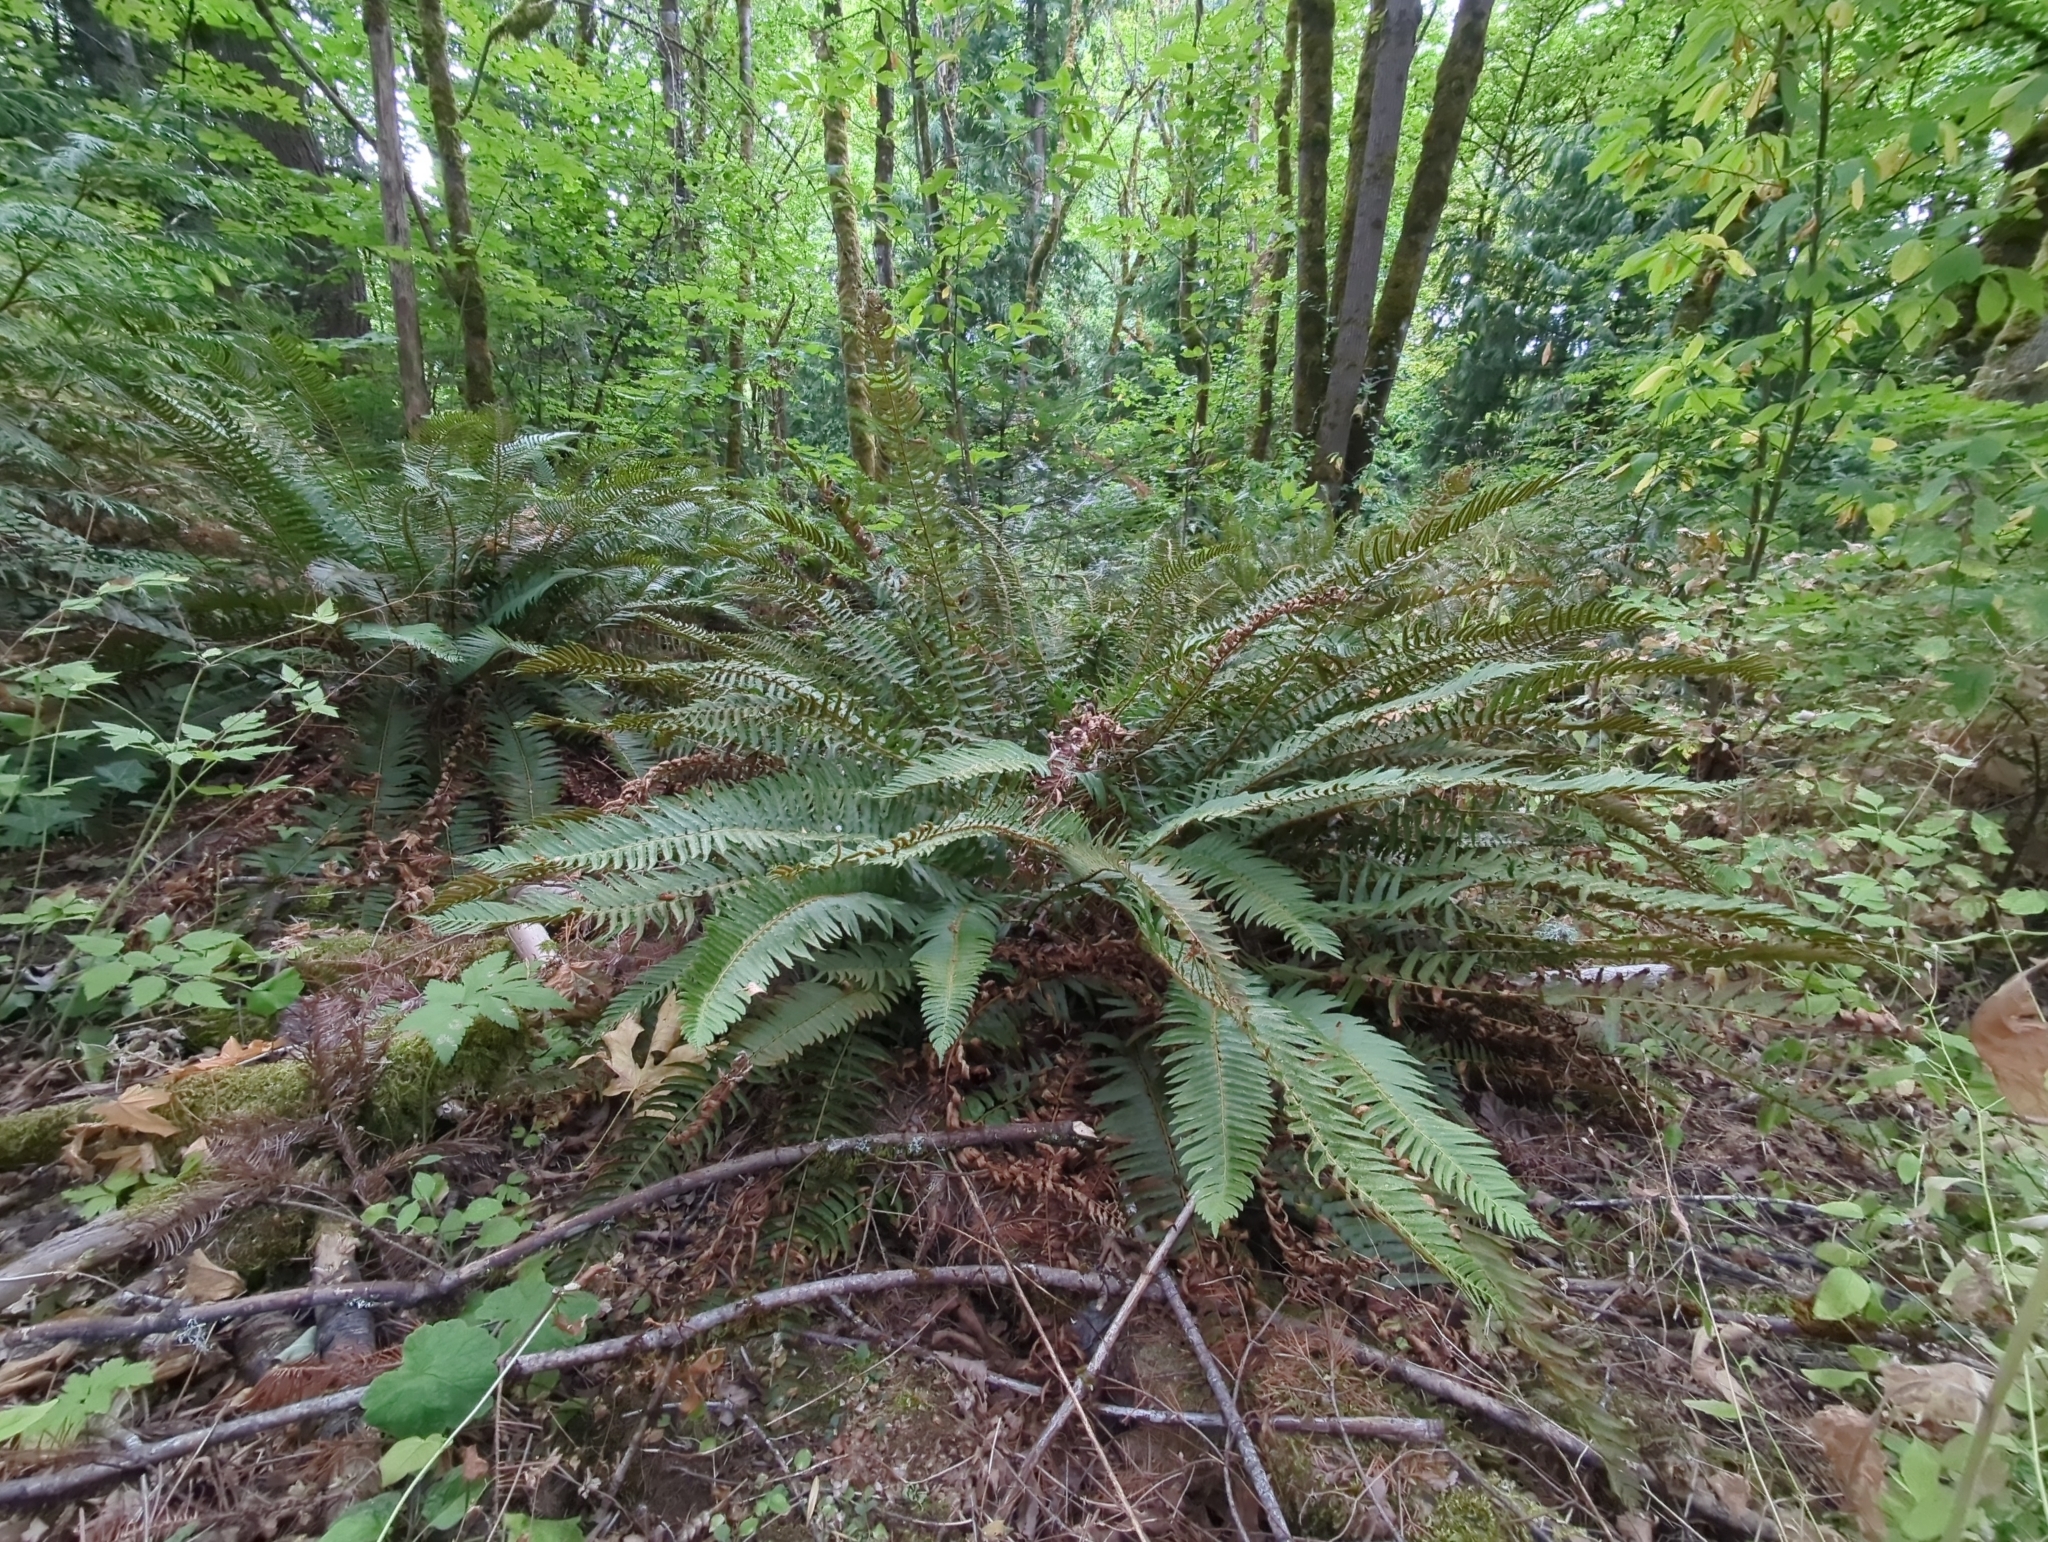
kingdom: Plantae
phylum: Tracheophyta
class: Polypodiopsida
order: Polypodiales
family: Dryopteridaceae
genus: Polystichum
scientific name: Polystichum munitum
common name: Western sword-fern
